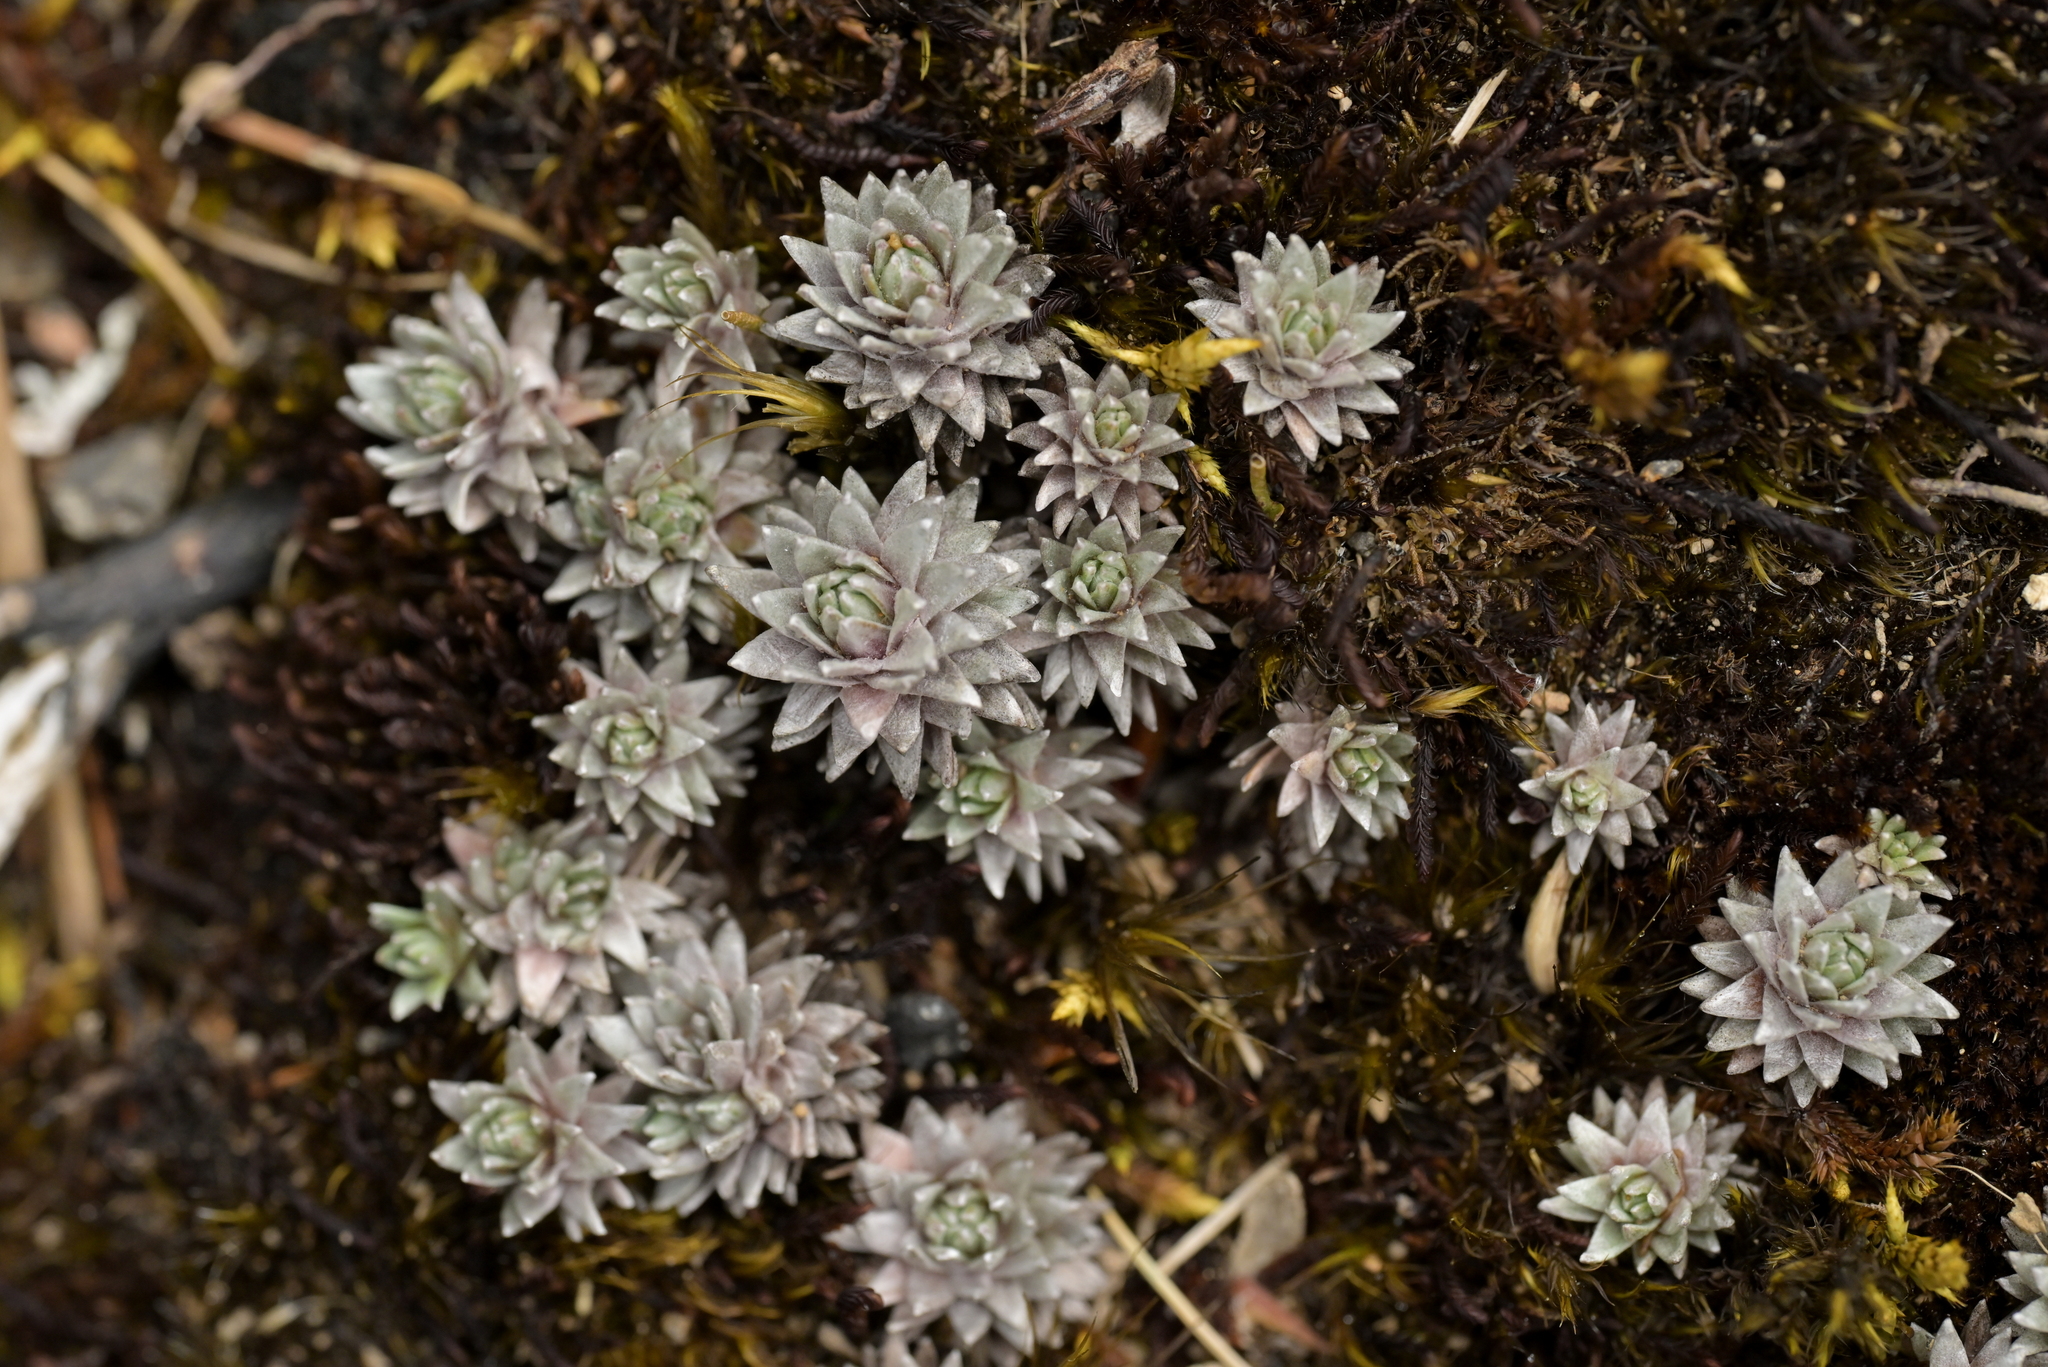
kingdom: Plantae
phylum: Tracheophyta
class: Magnoliopsida
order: Asterales
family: Asteraceae
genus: Raoulia
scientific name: Raoulia grandiflora
